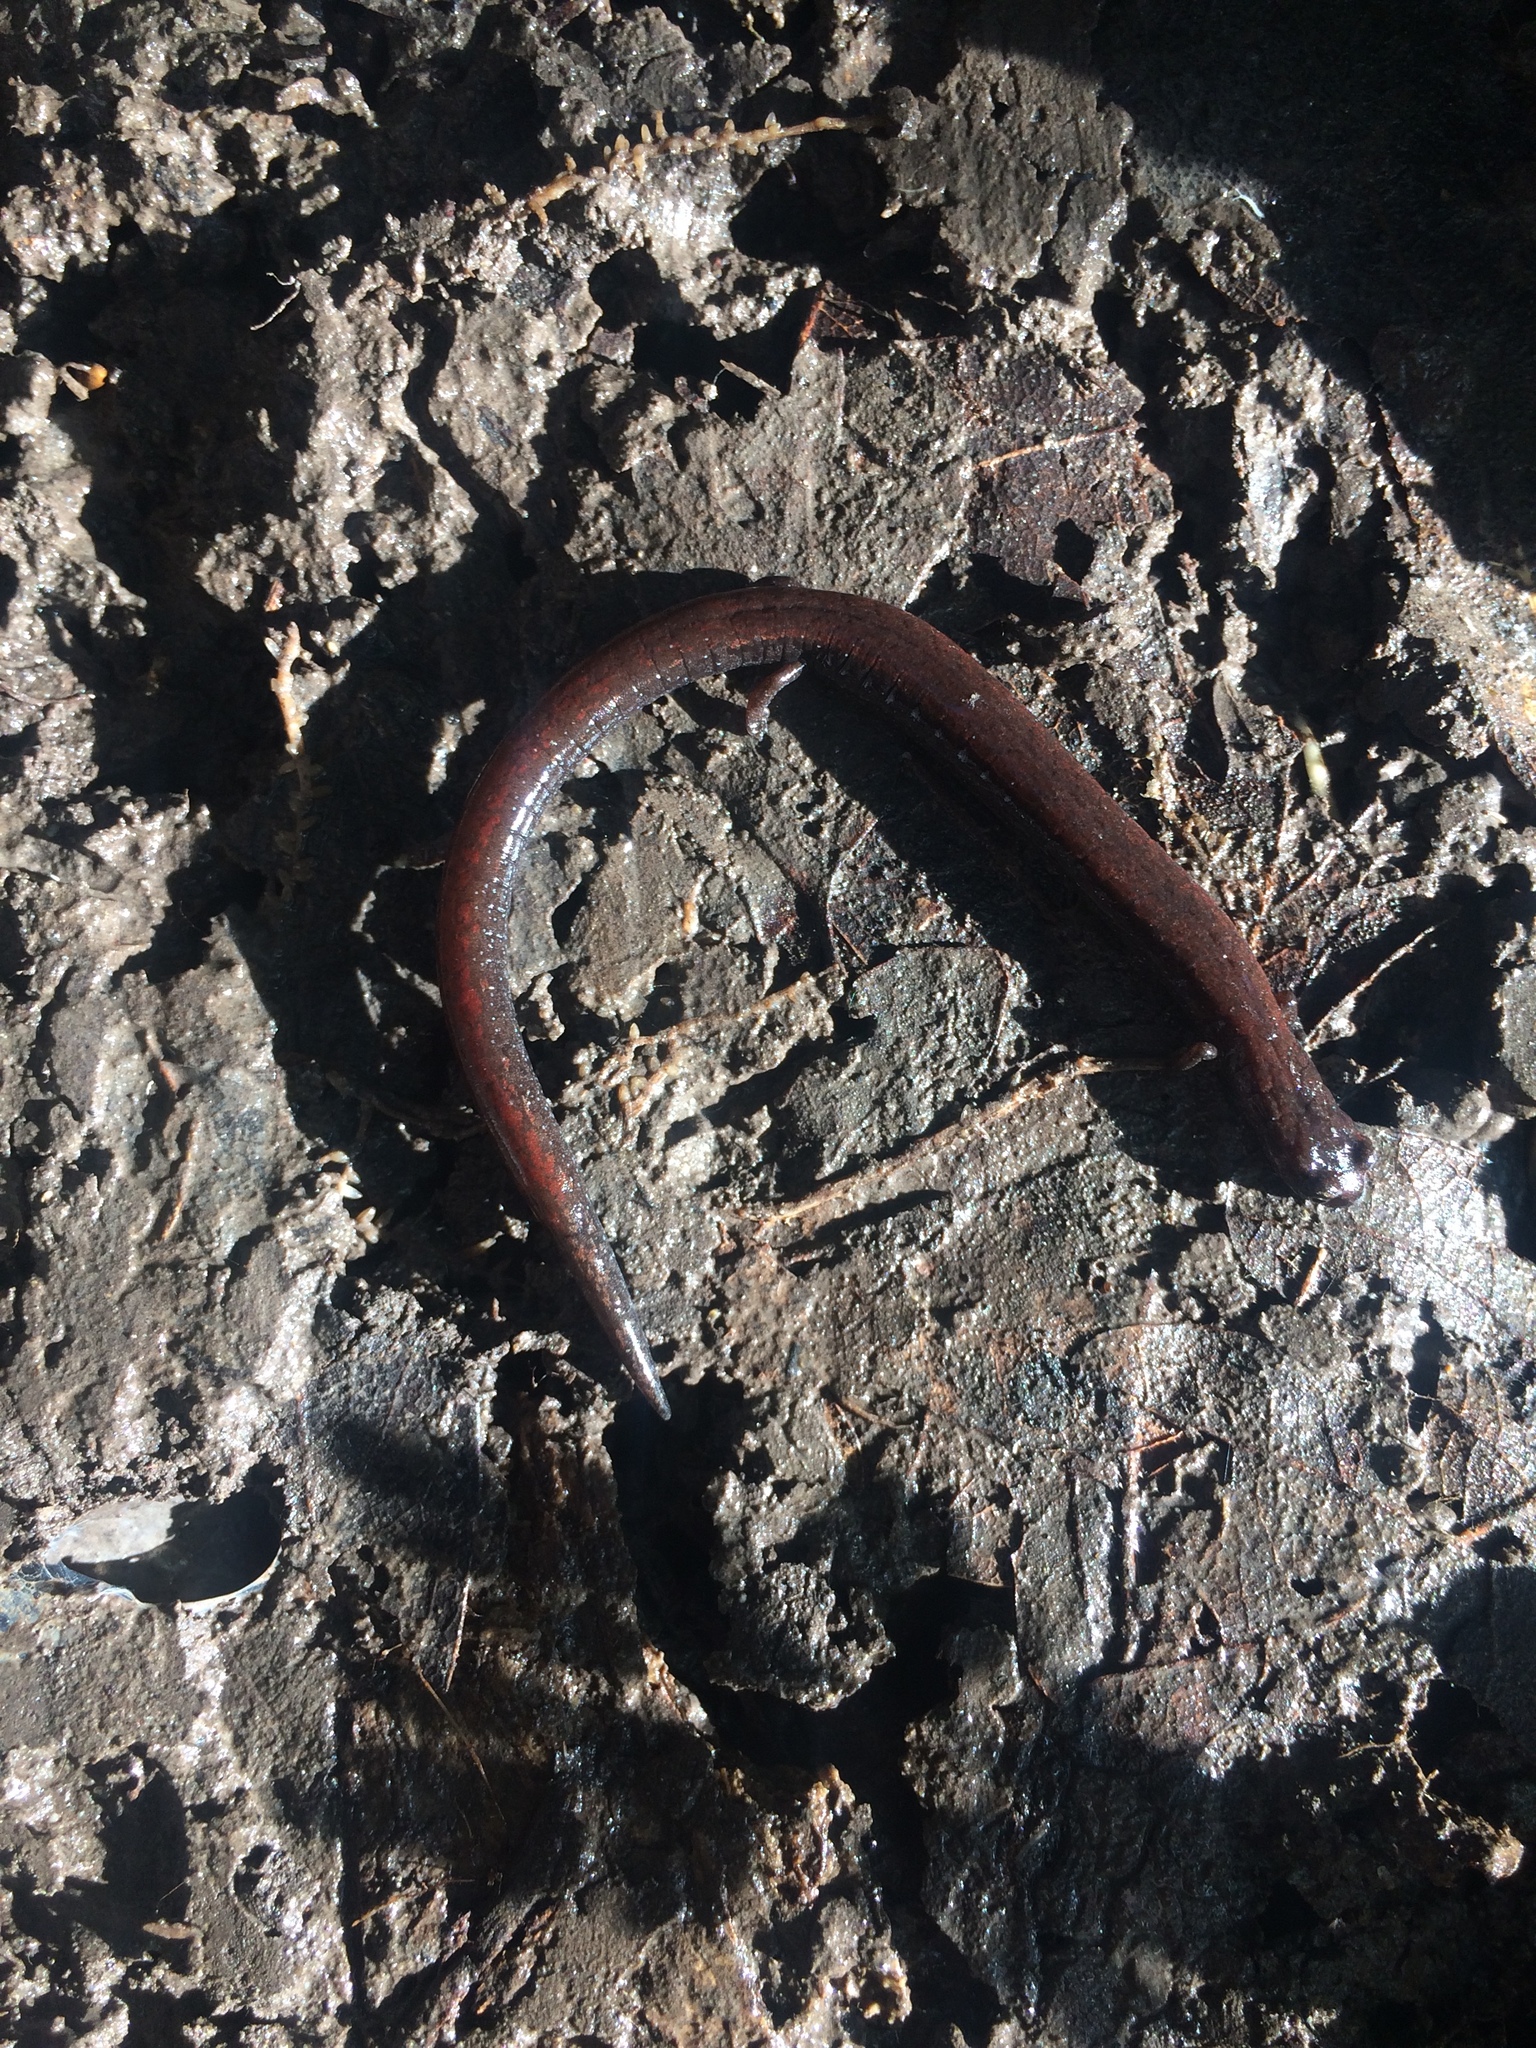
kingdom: Animalia
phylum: Chordata
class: Amphibia
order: Caudata
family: Plethodontidae
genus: Batrachoseps
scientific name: Batrachoseps attenuatus
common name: California slender salamander
